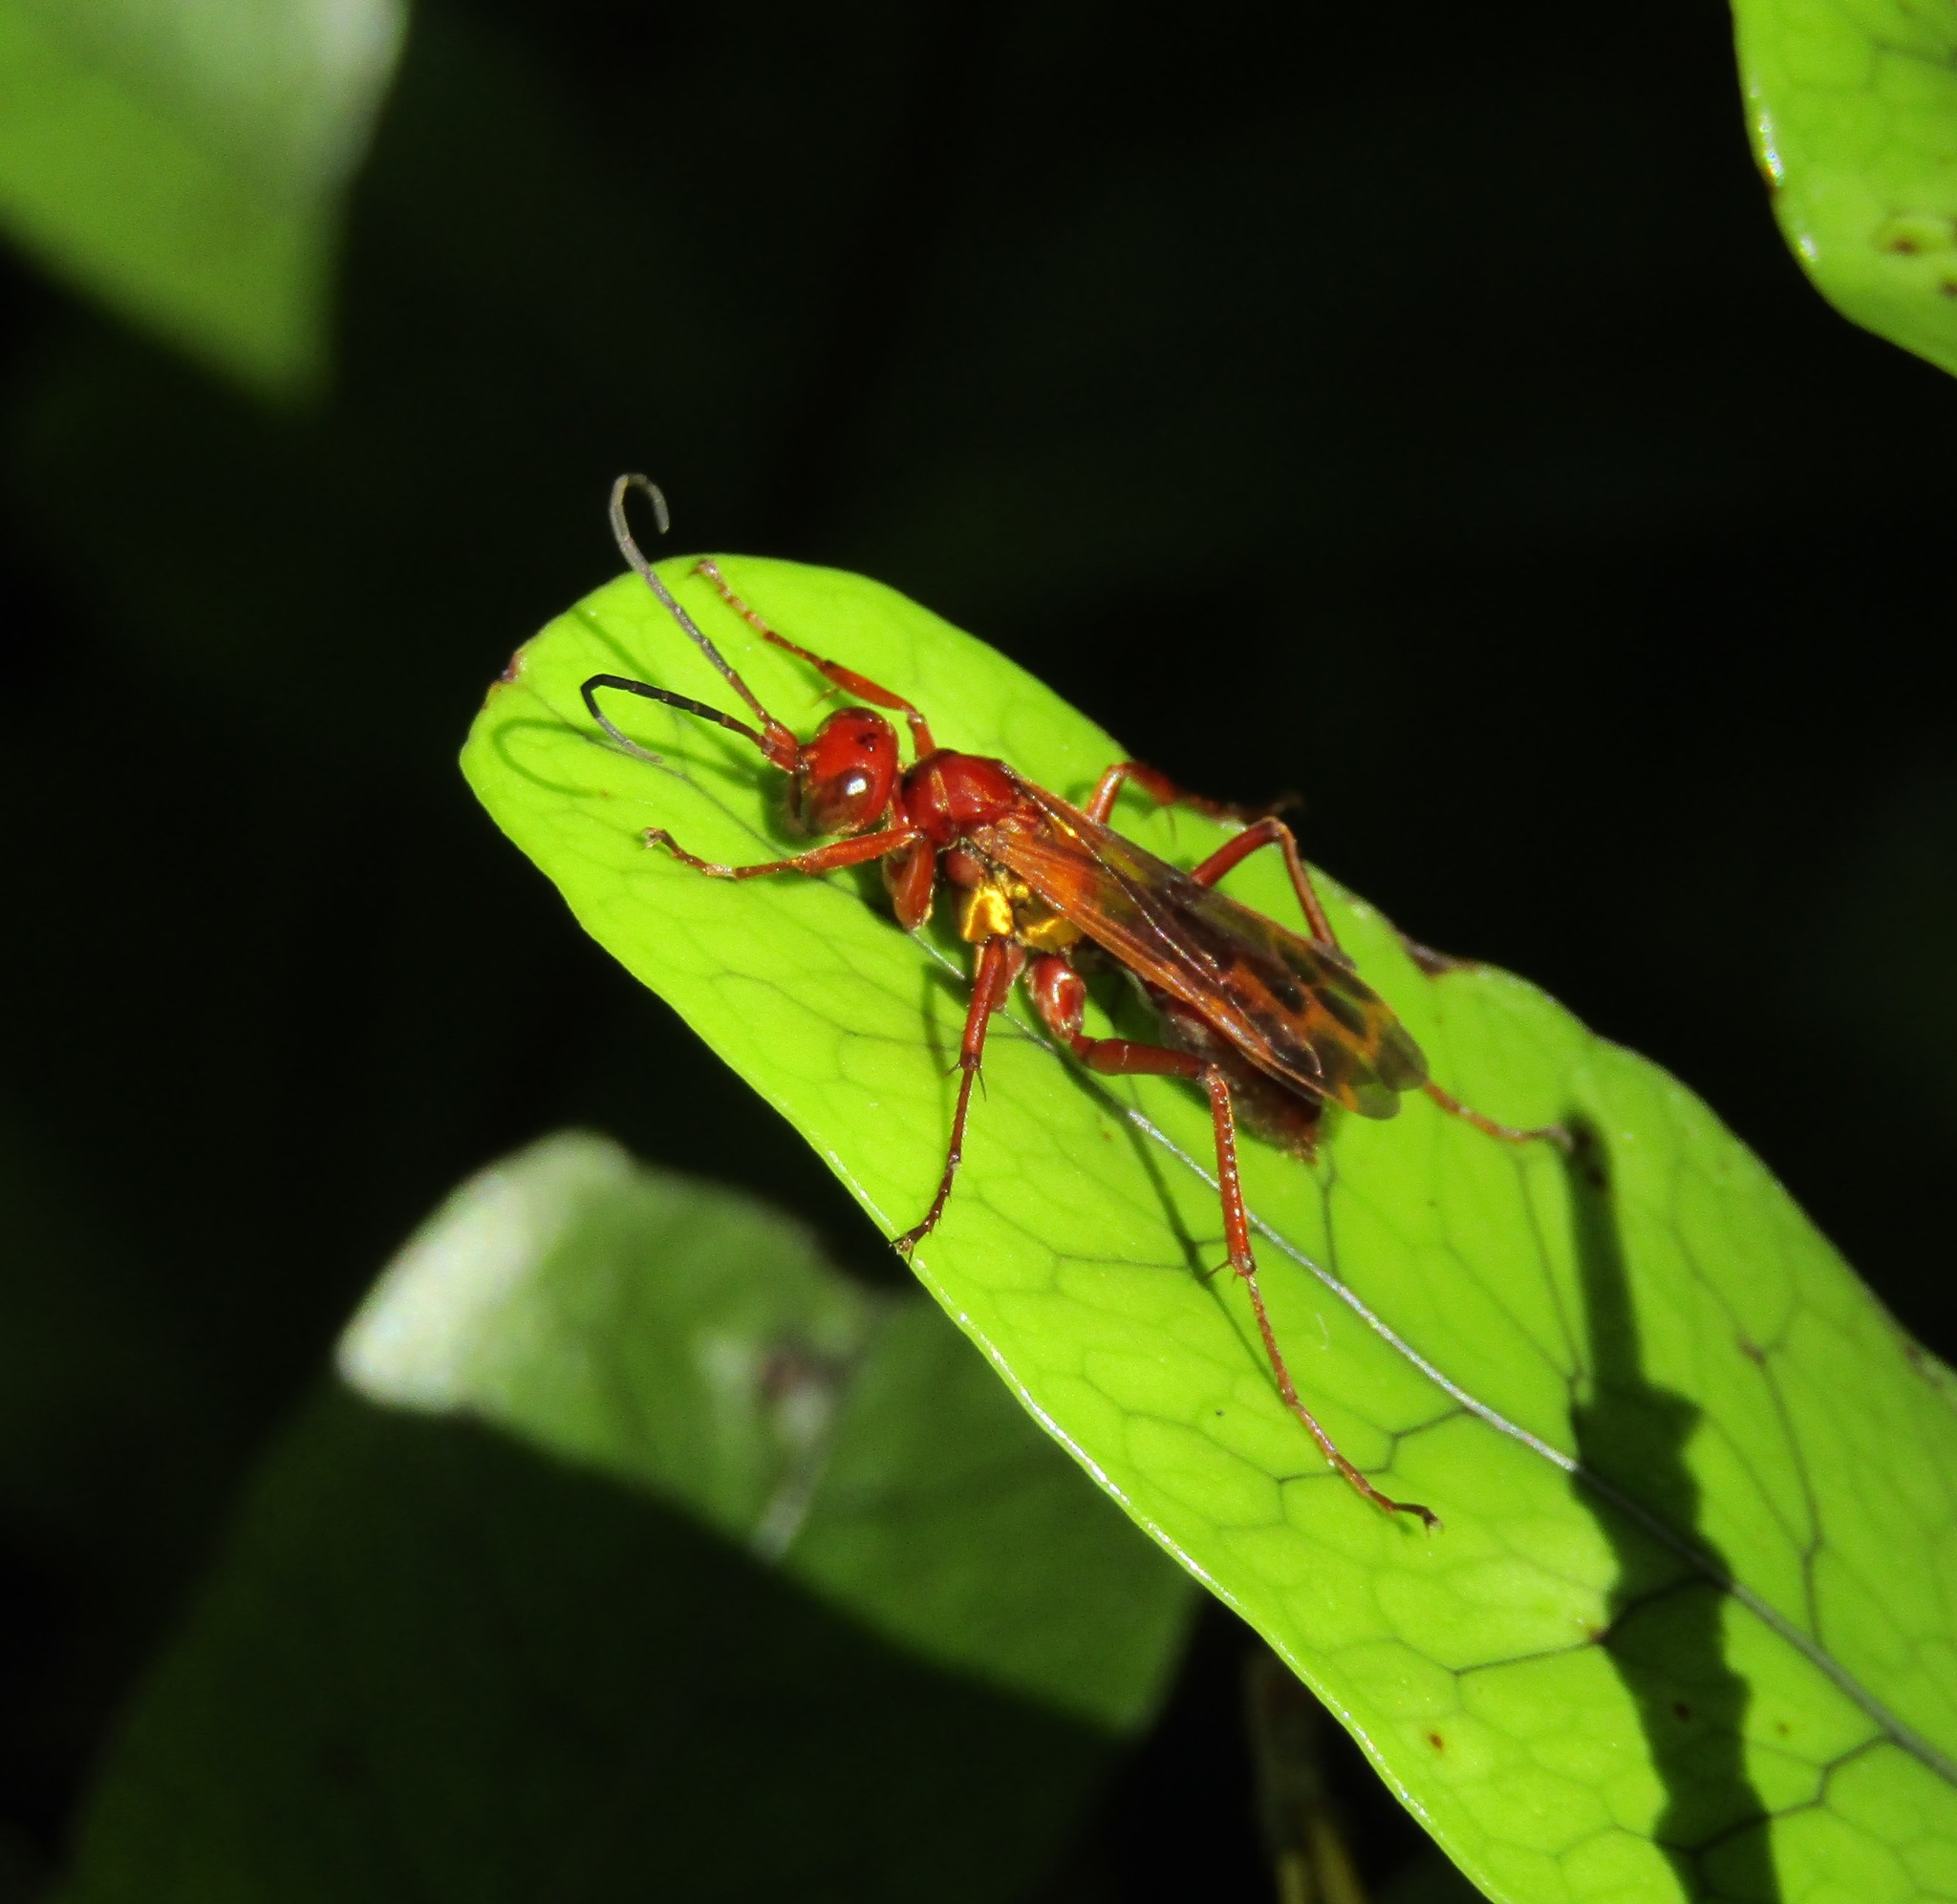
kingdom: Animalia
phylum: Arthropoda
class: Insecta
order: Hymenoptera
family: Pompilidae
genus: Sphictostethus
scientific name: Sphictostethus nitidus
